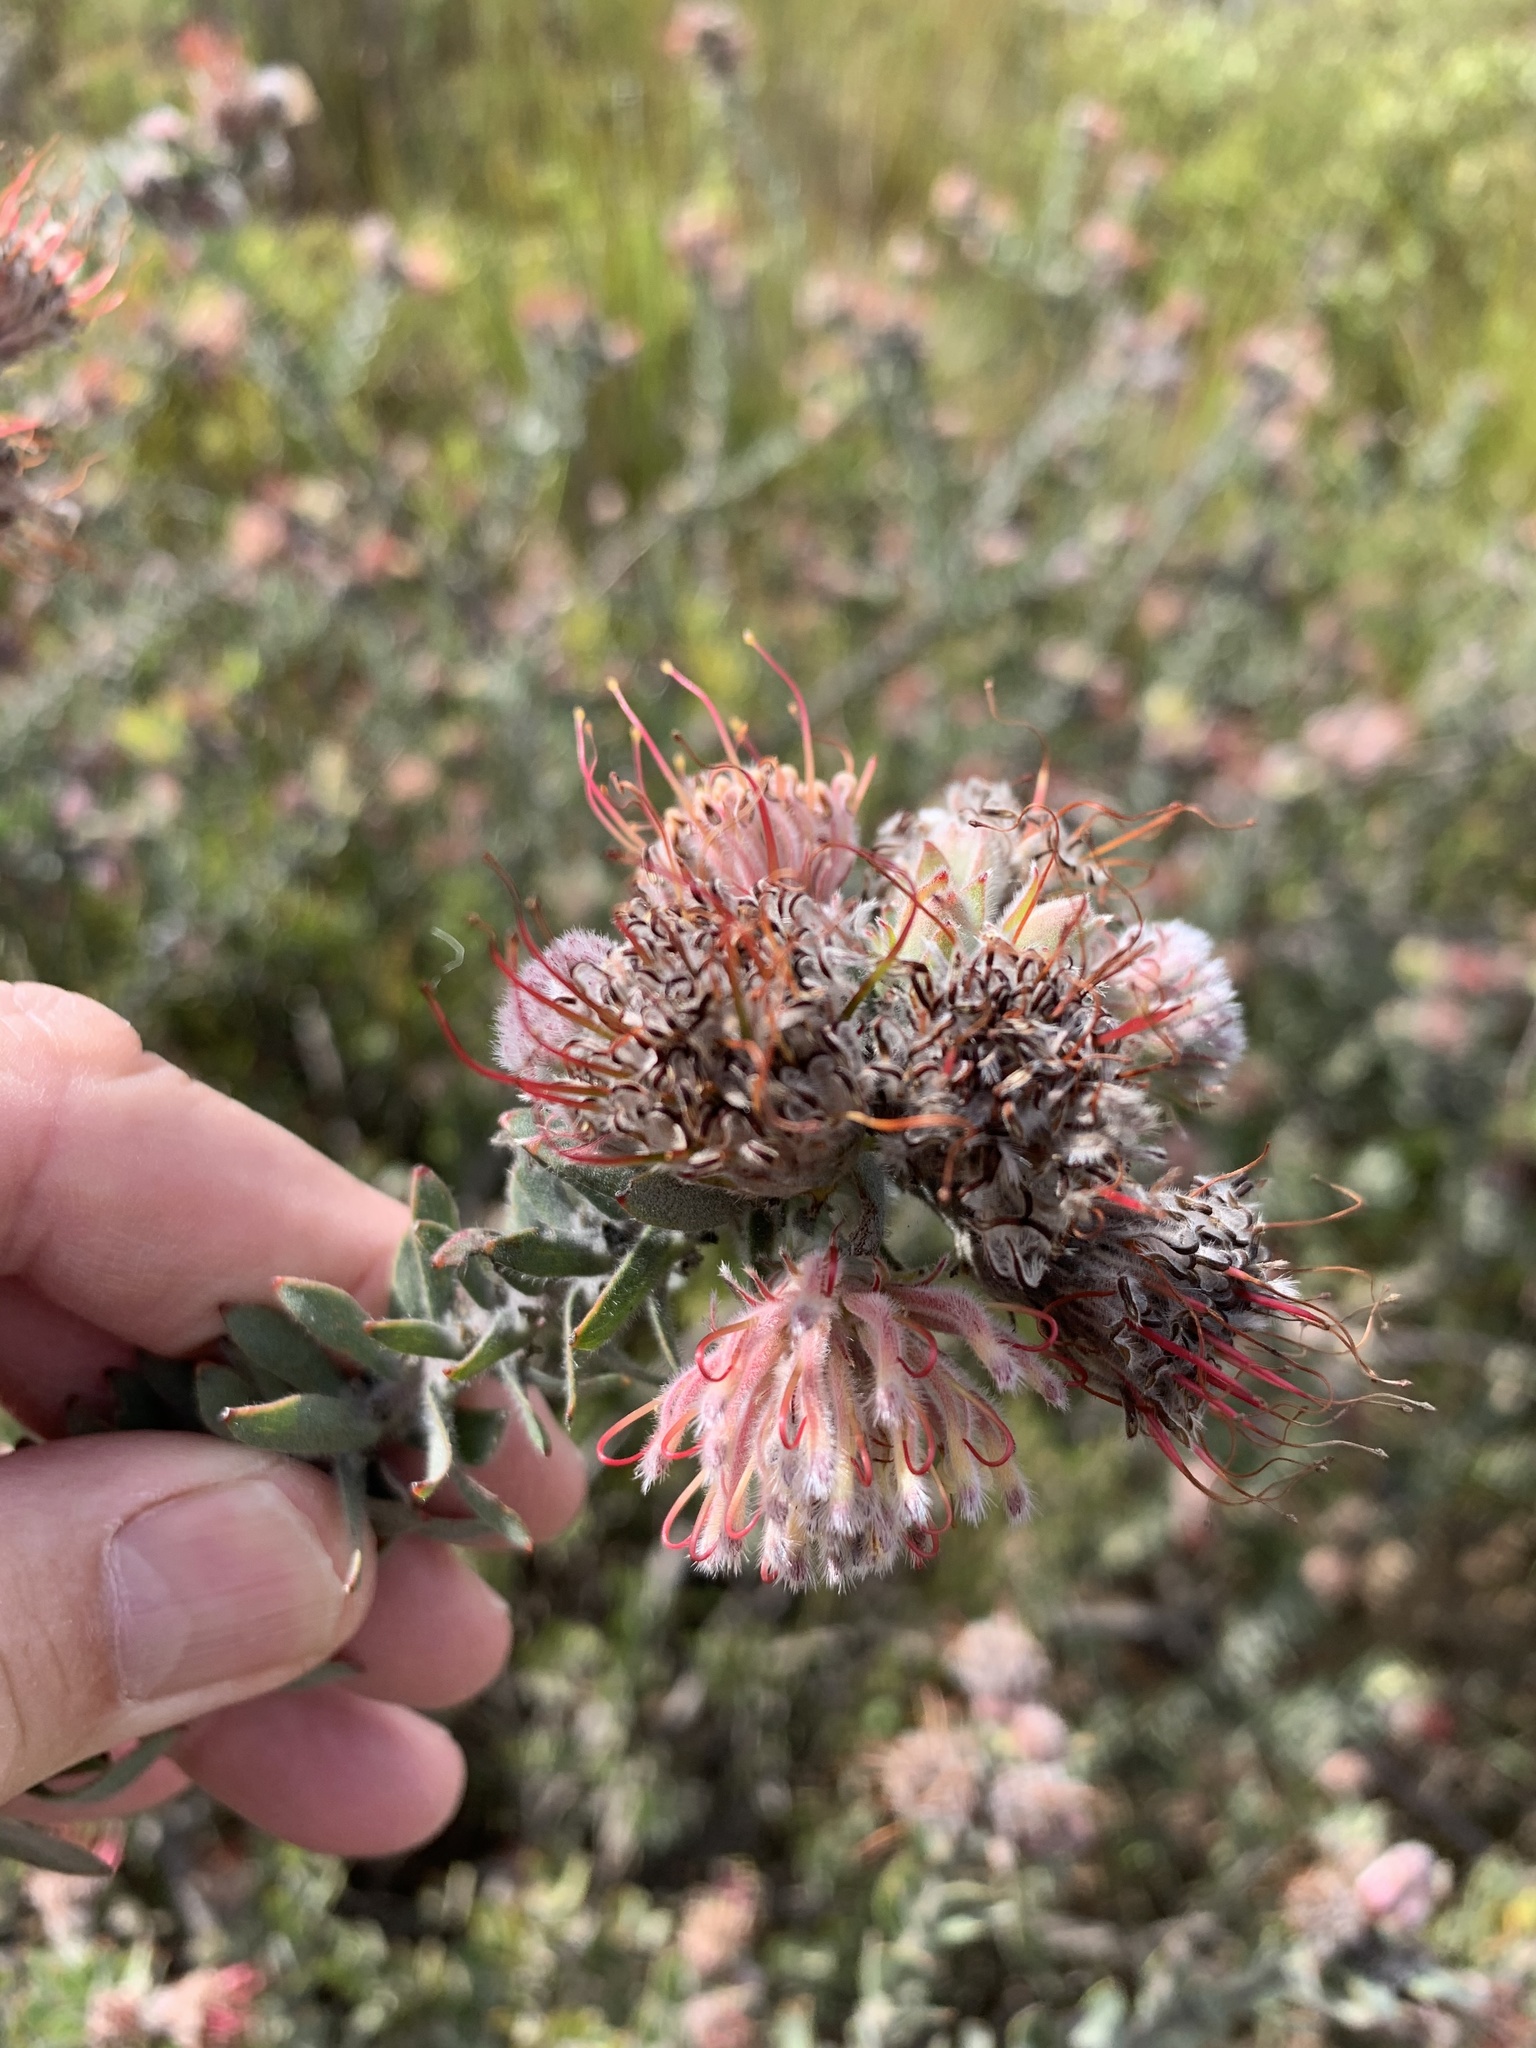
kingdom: Plantae
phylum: Tracheophyta
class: Magnoliopsida
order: Proteales
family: Proteaceae
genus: Leucospermum
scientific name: Leucospermum calligerum
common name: Arid pincushion
